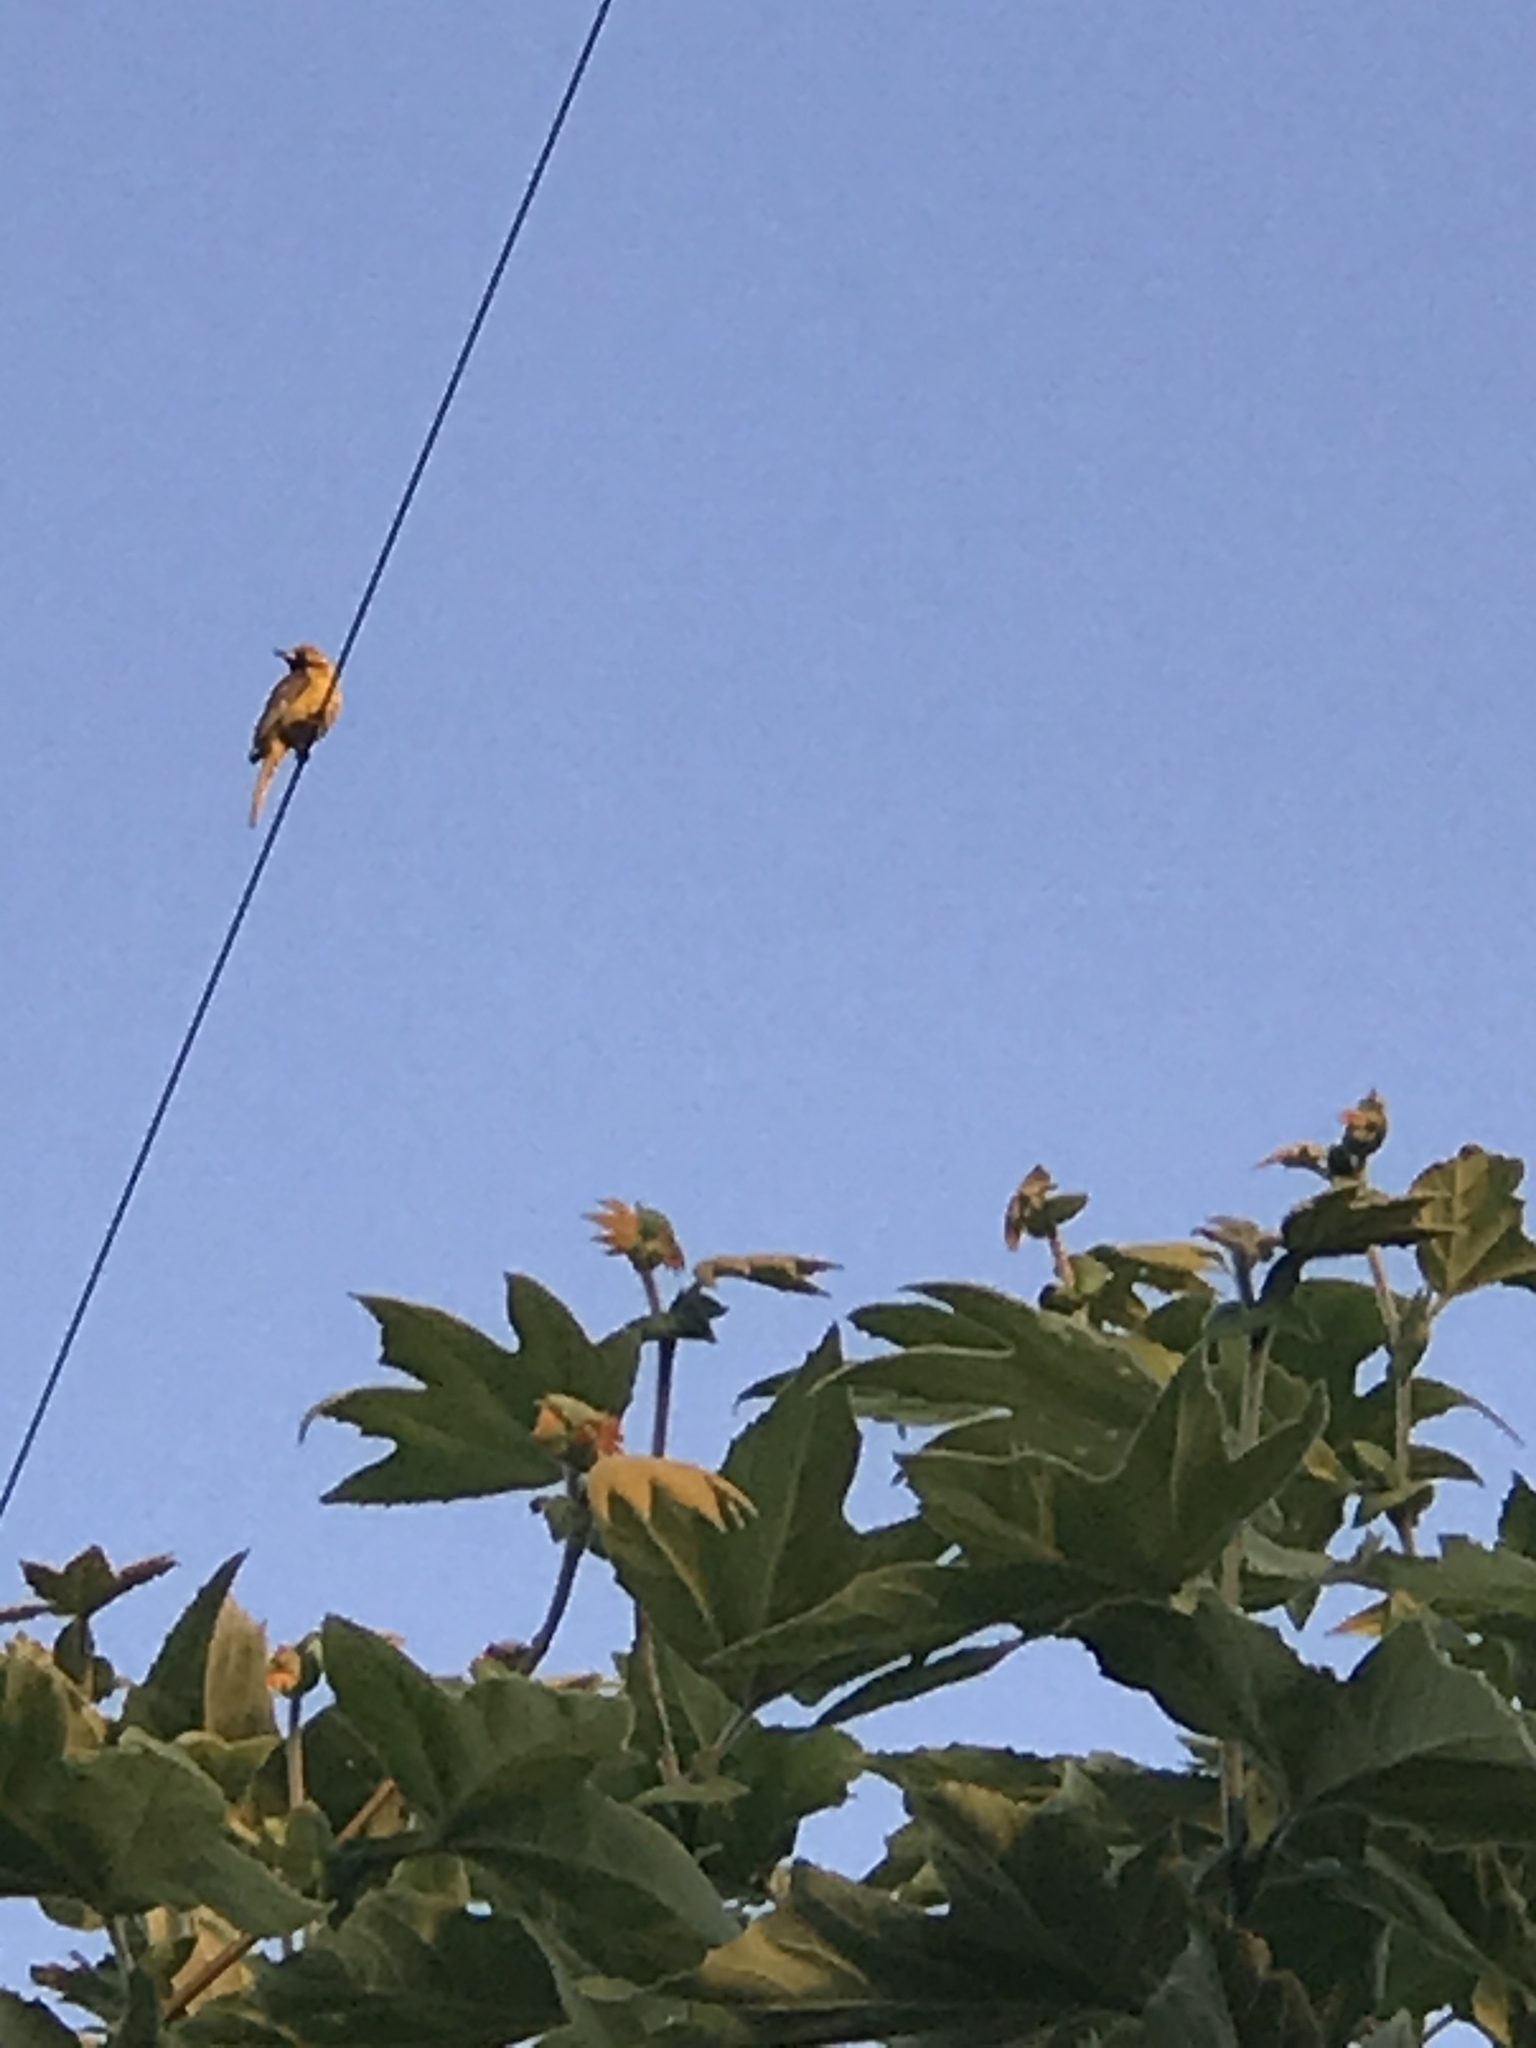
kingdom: Animalia
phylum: Chordata
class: Aves
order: Passeriformes
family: Icteridae
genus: Icterus
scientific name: Icterus cucullatus
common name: Hooded oriole
